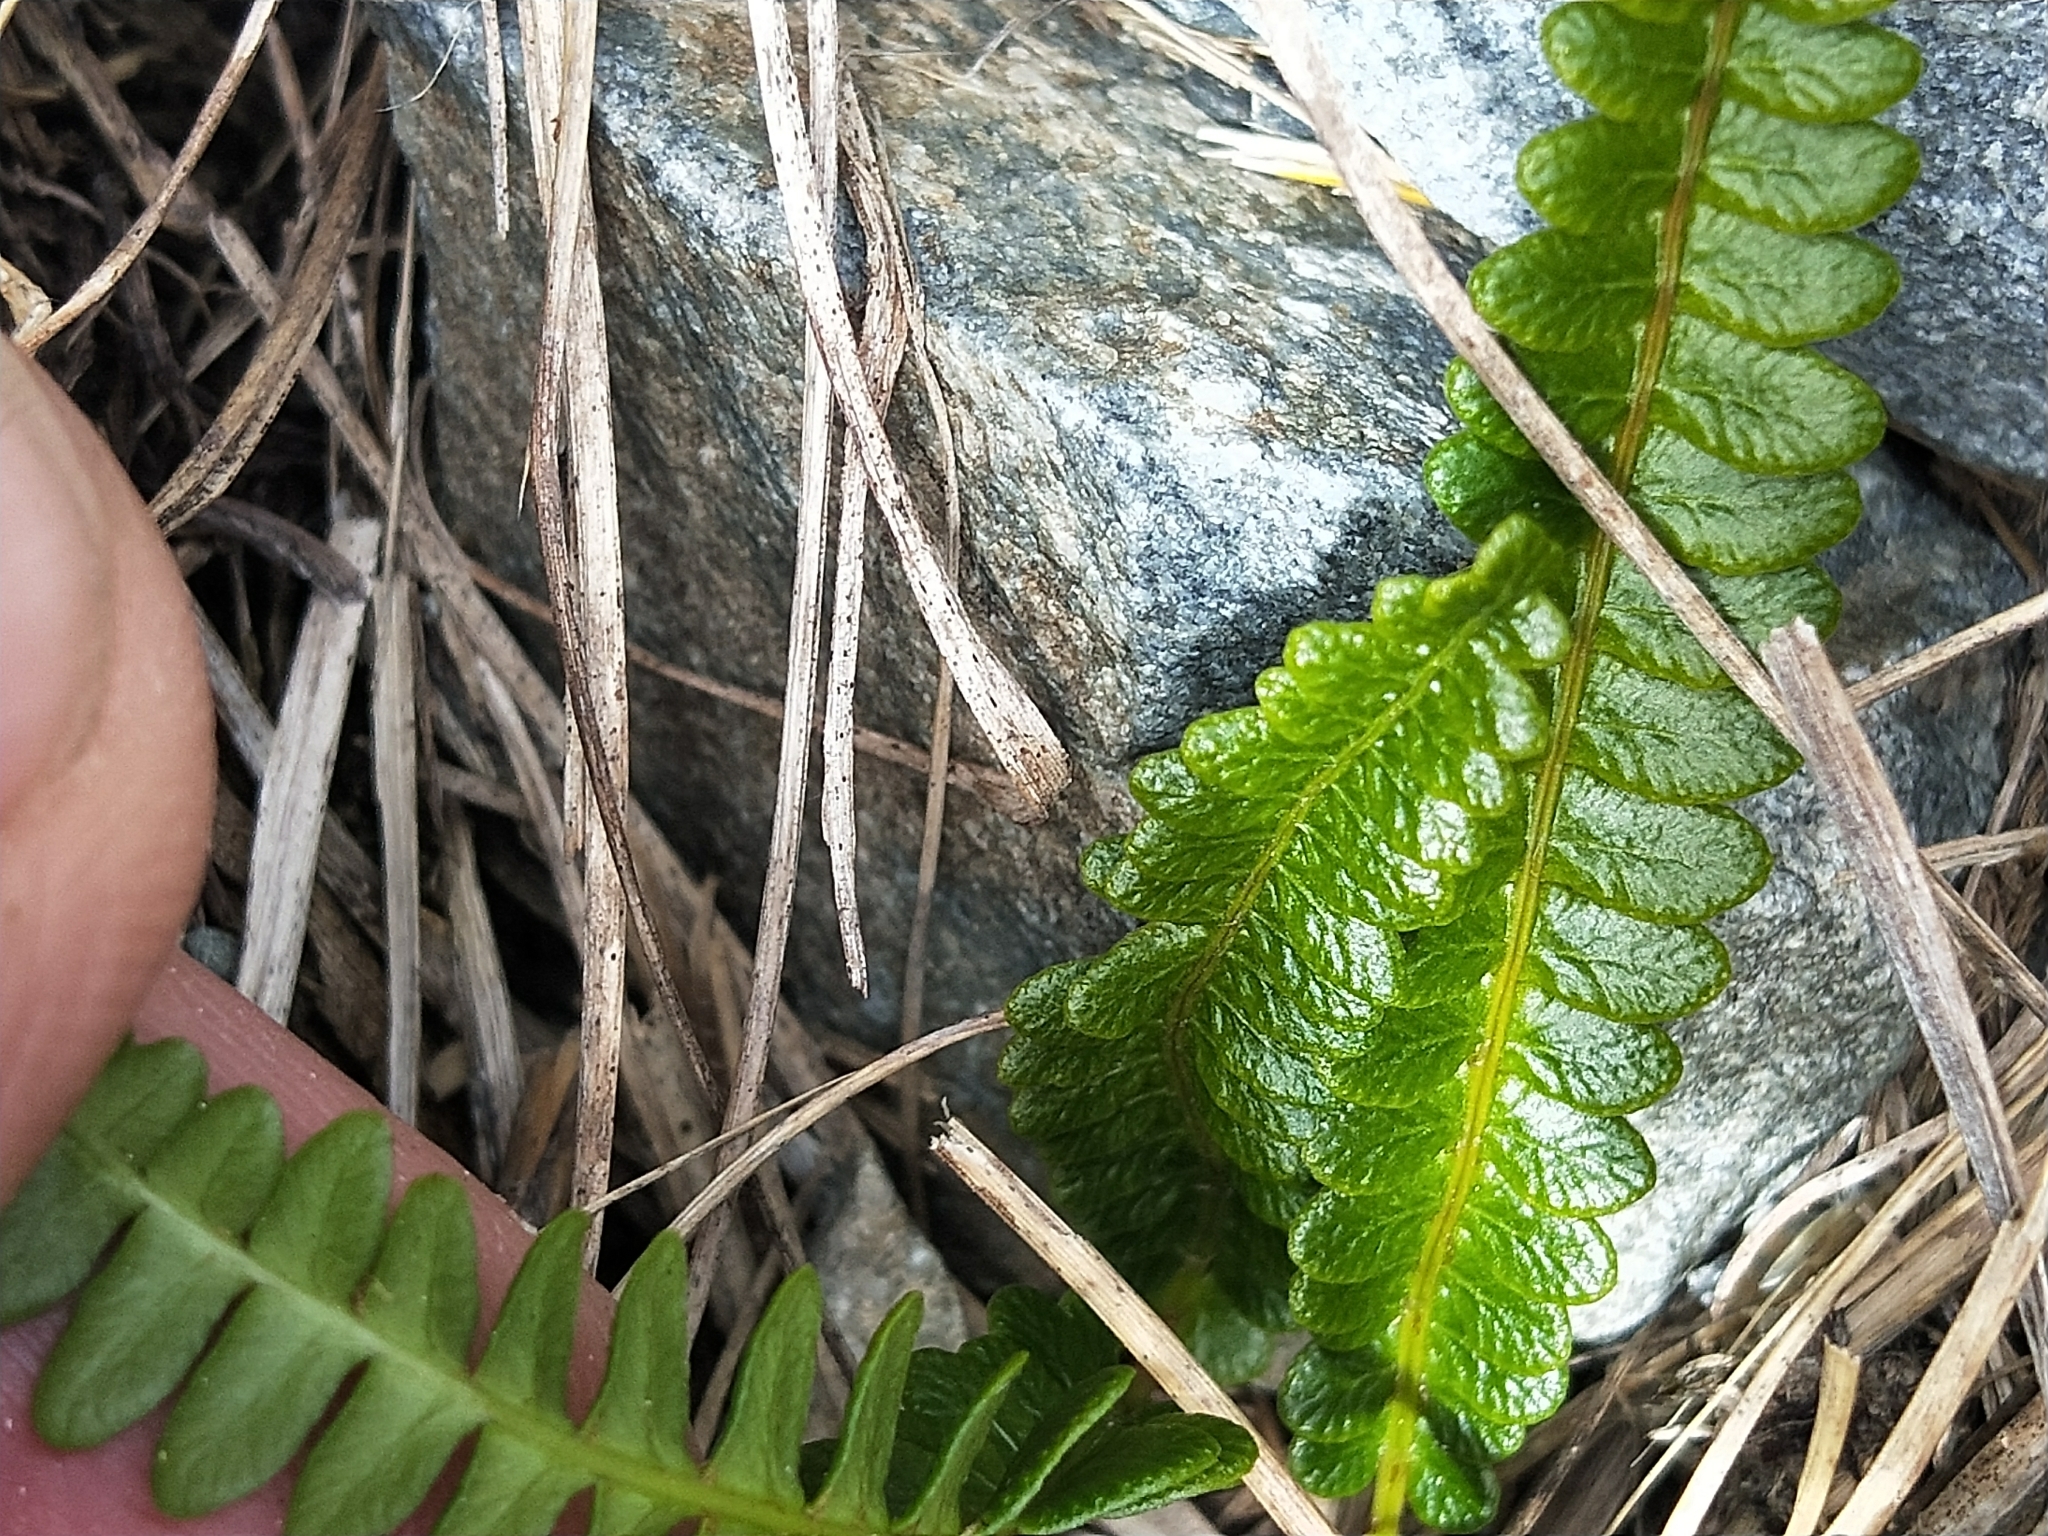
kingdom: Plantae
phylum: Tracheophyta
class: Polypodiopsida
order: Polypodiales
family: Blechnaceae
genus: Austroblechnum
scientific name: Austroblechnum penna-marina
